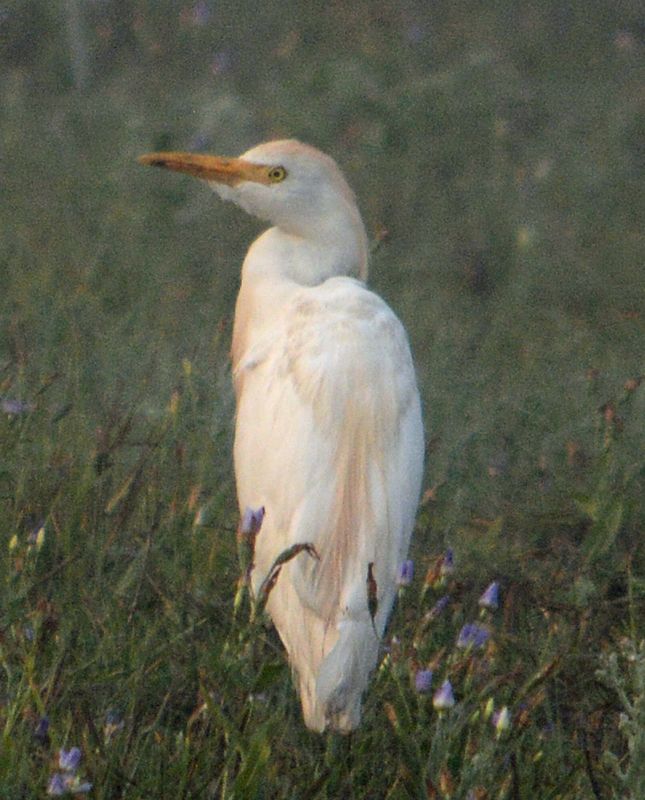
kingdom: Animalia
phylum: Chordata
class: Aves
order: Pelecaniformes
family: Ardeidae
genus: Bubulcus
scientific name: Bubulcus ibis
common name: Cattle egret
